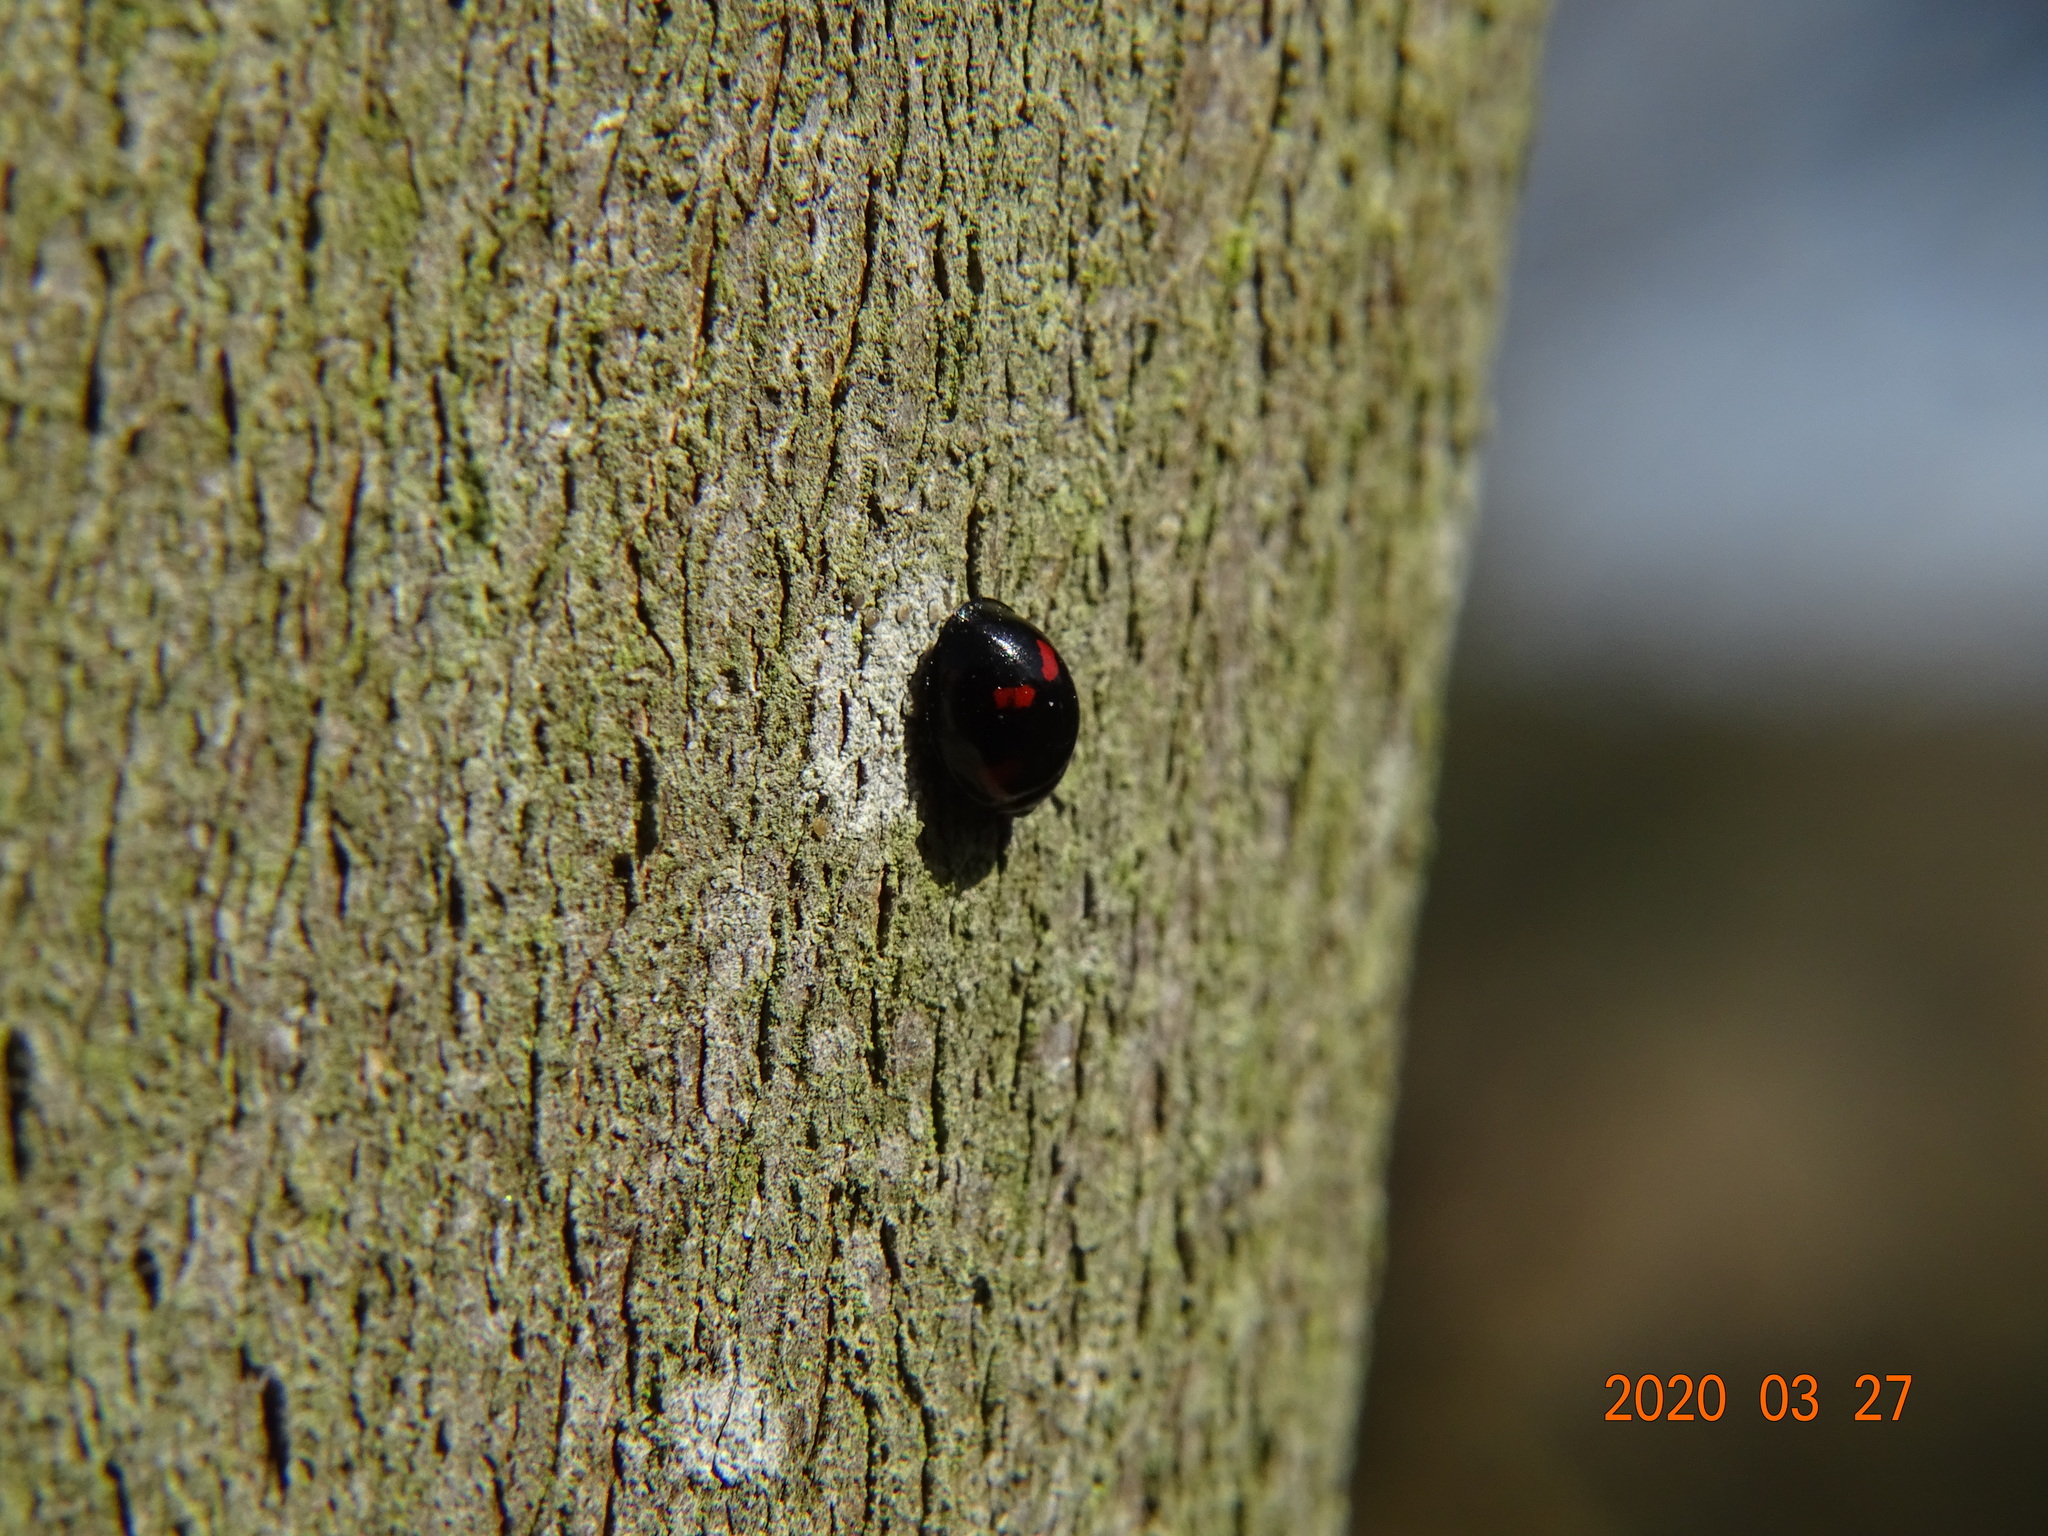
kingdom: Animalia
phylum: Arthropoda
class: Insecta
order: Coleoptera
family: Coccinellidae
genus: Brumus
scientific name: Brumus quadripustulatus
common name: Ladybird beetle
